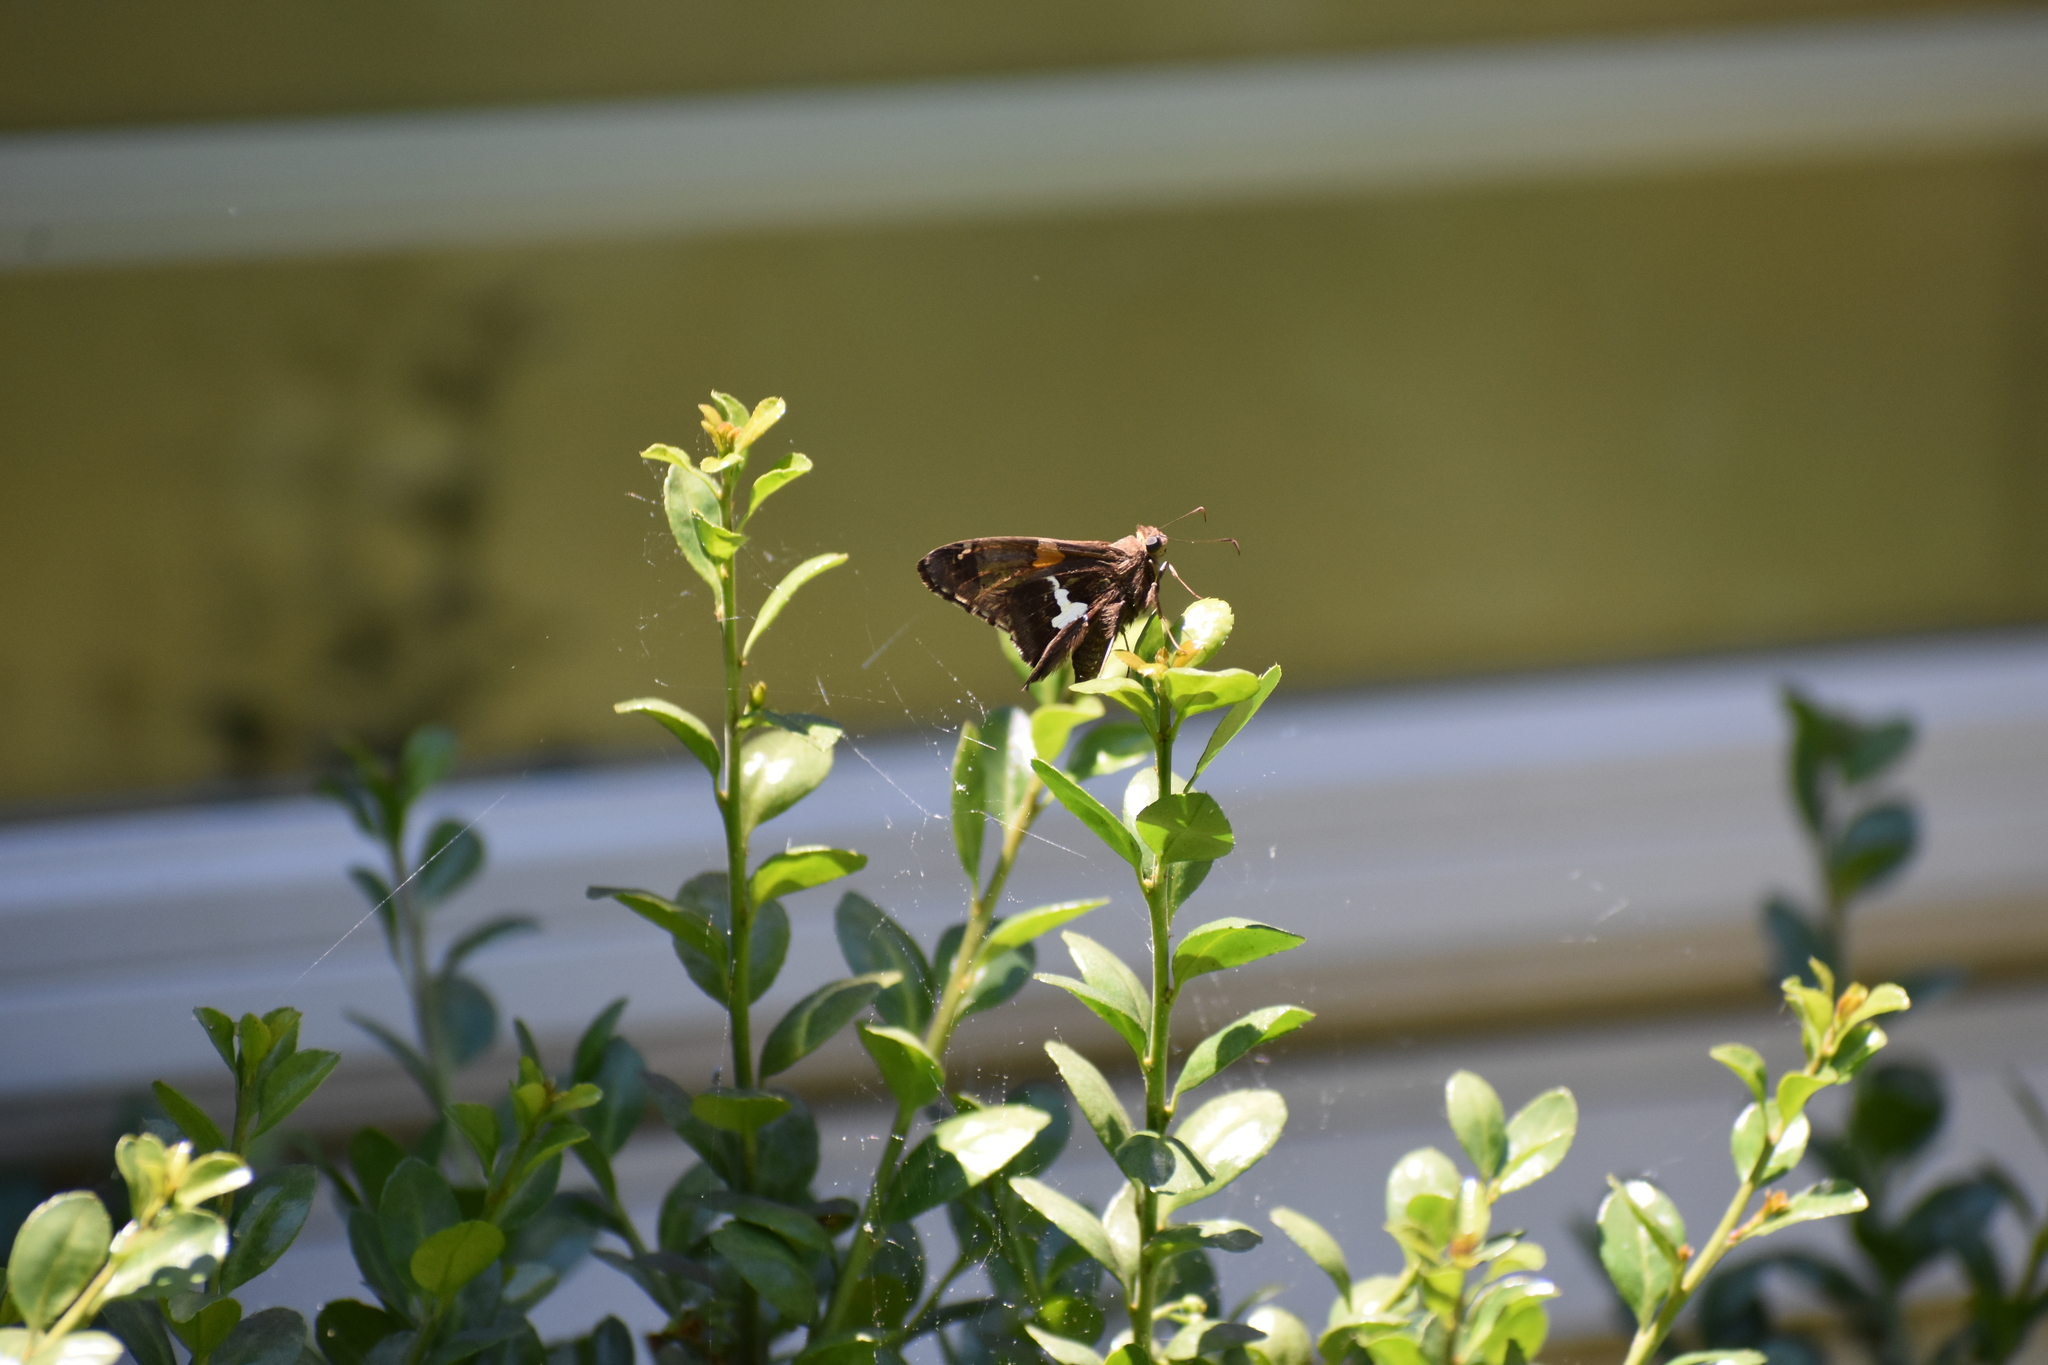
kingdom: Animalia
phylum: Arthropoda
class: Insecta
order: Lepidoptera
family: Hesperiidae
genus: Epargyreus
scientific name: Epargyreus clarus
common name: Silver-spotted skipper
